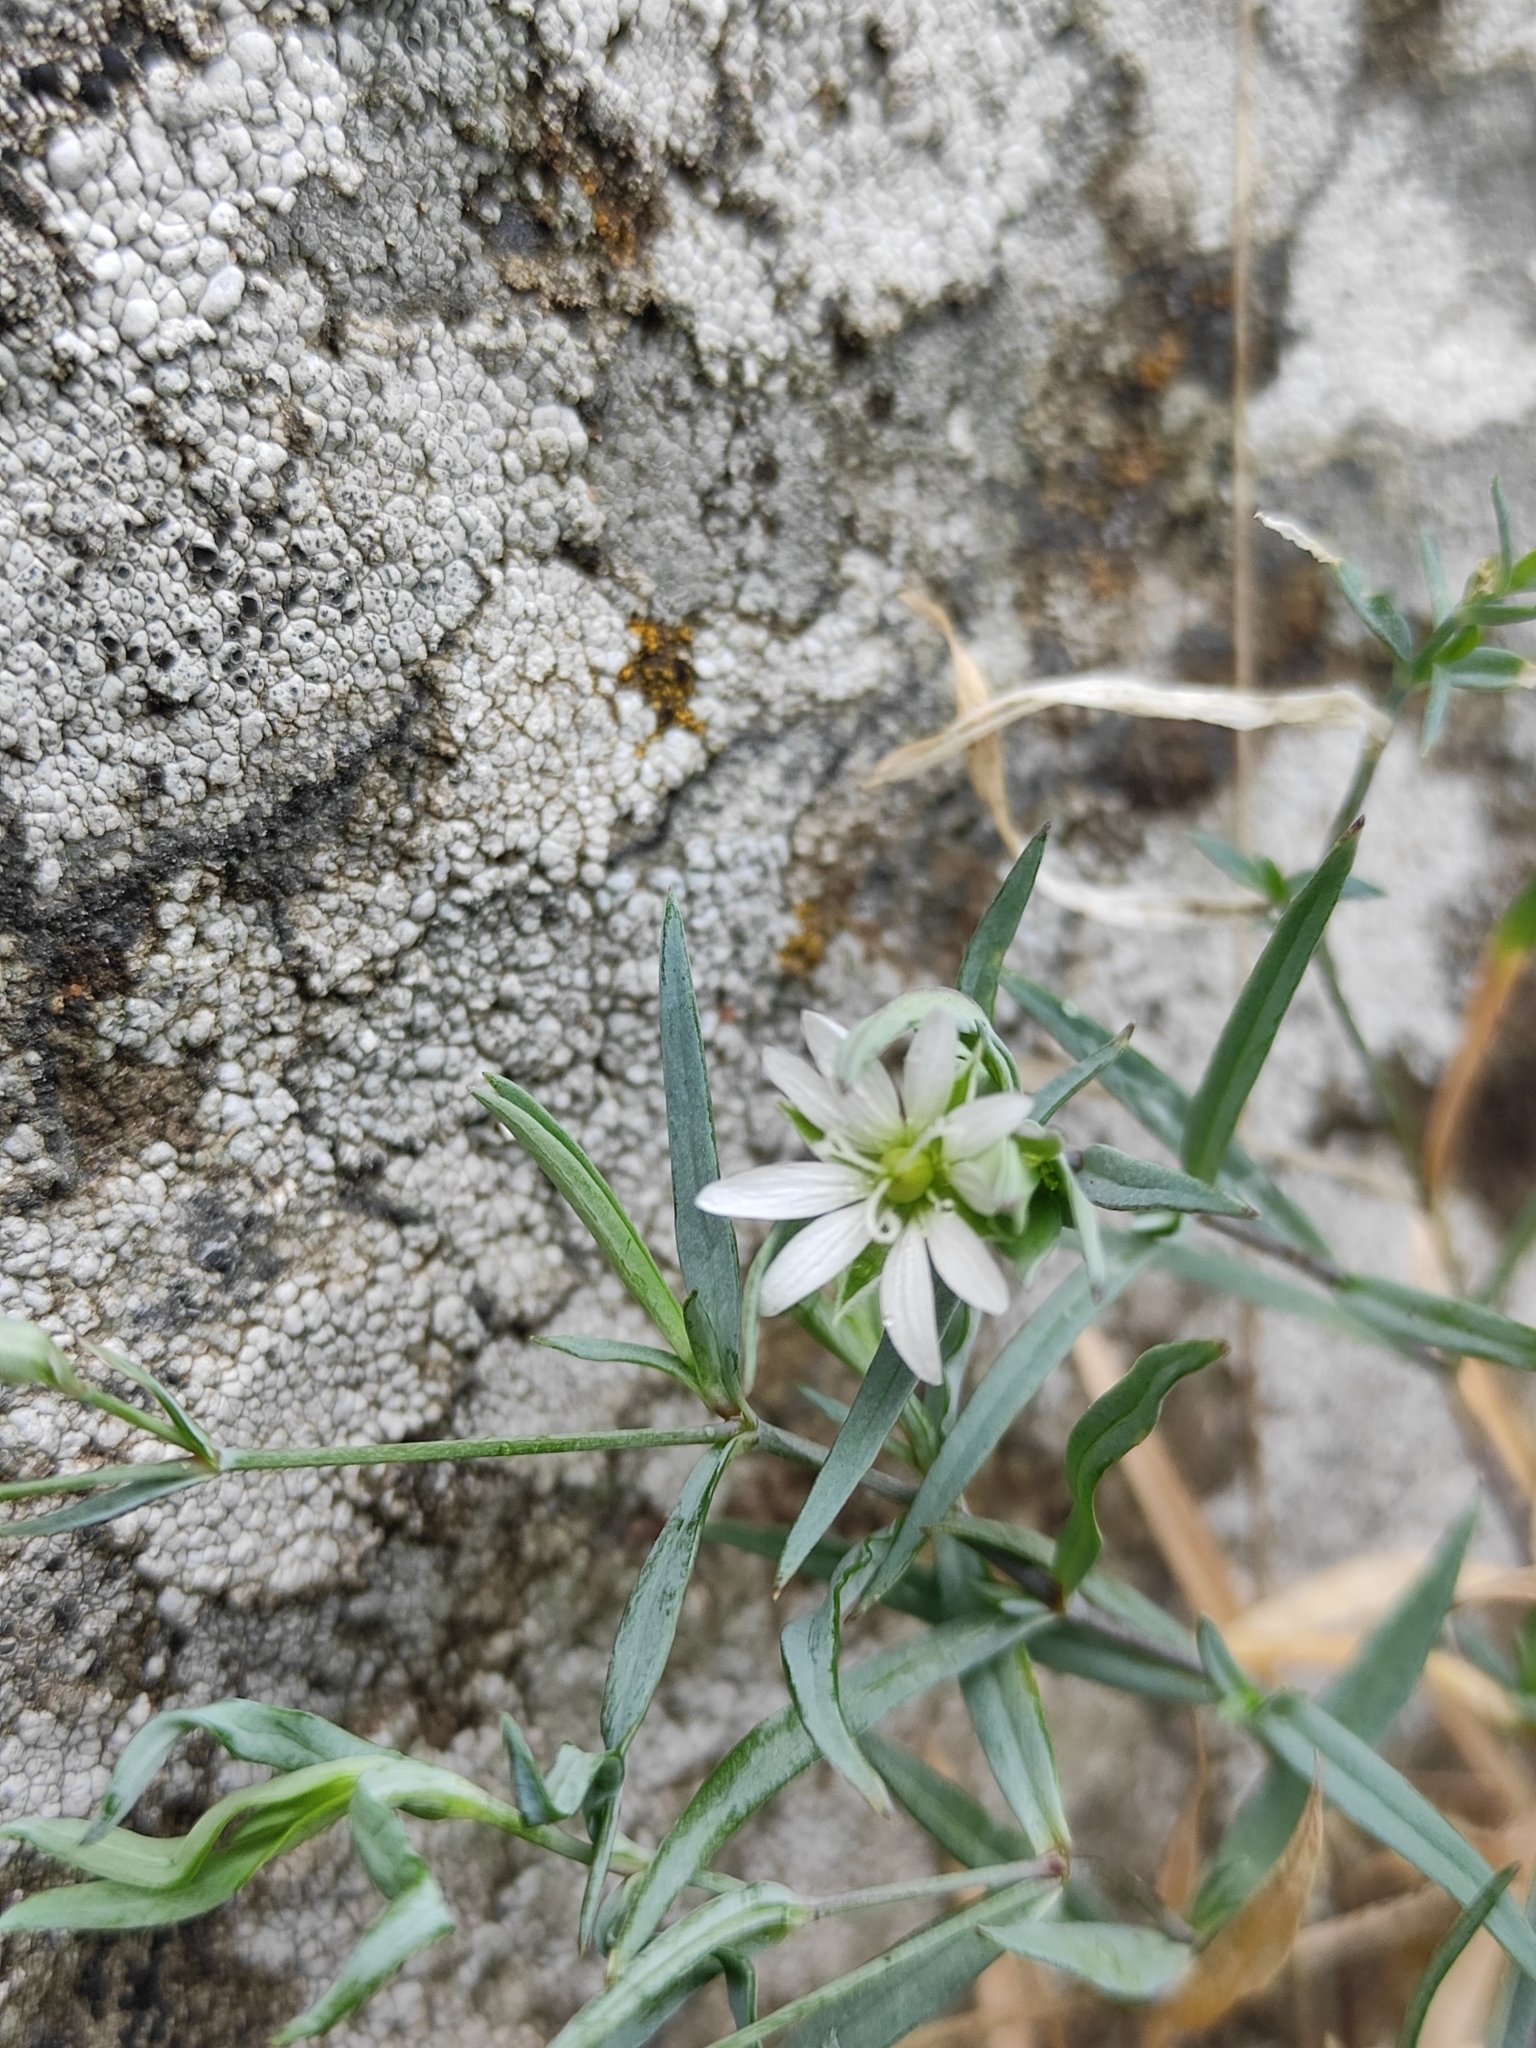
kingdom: Plantae
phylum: Tracheophyta
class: Magnoliopsida
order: Caryophyllales
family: Caryophyllaceae
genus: Stellaria
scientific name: Stellaria dahurica
